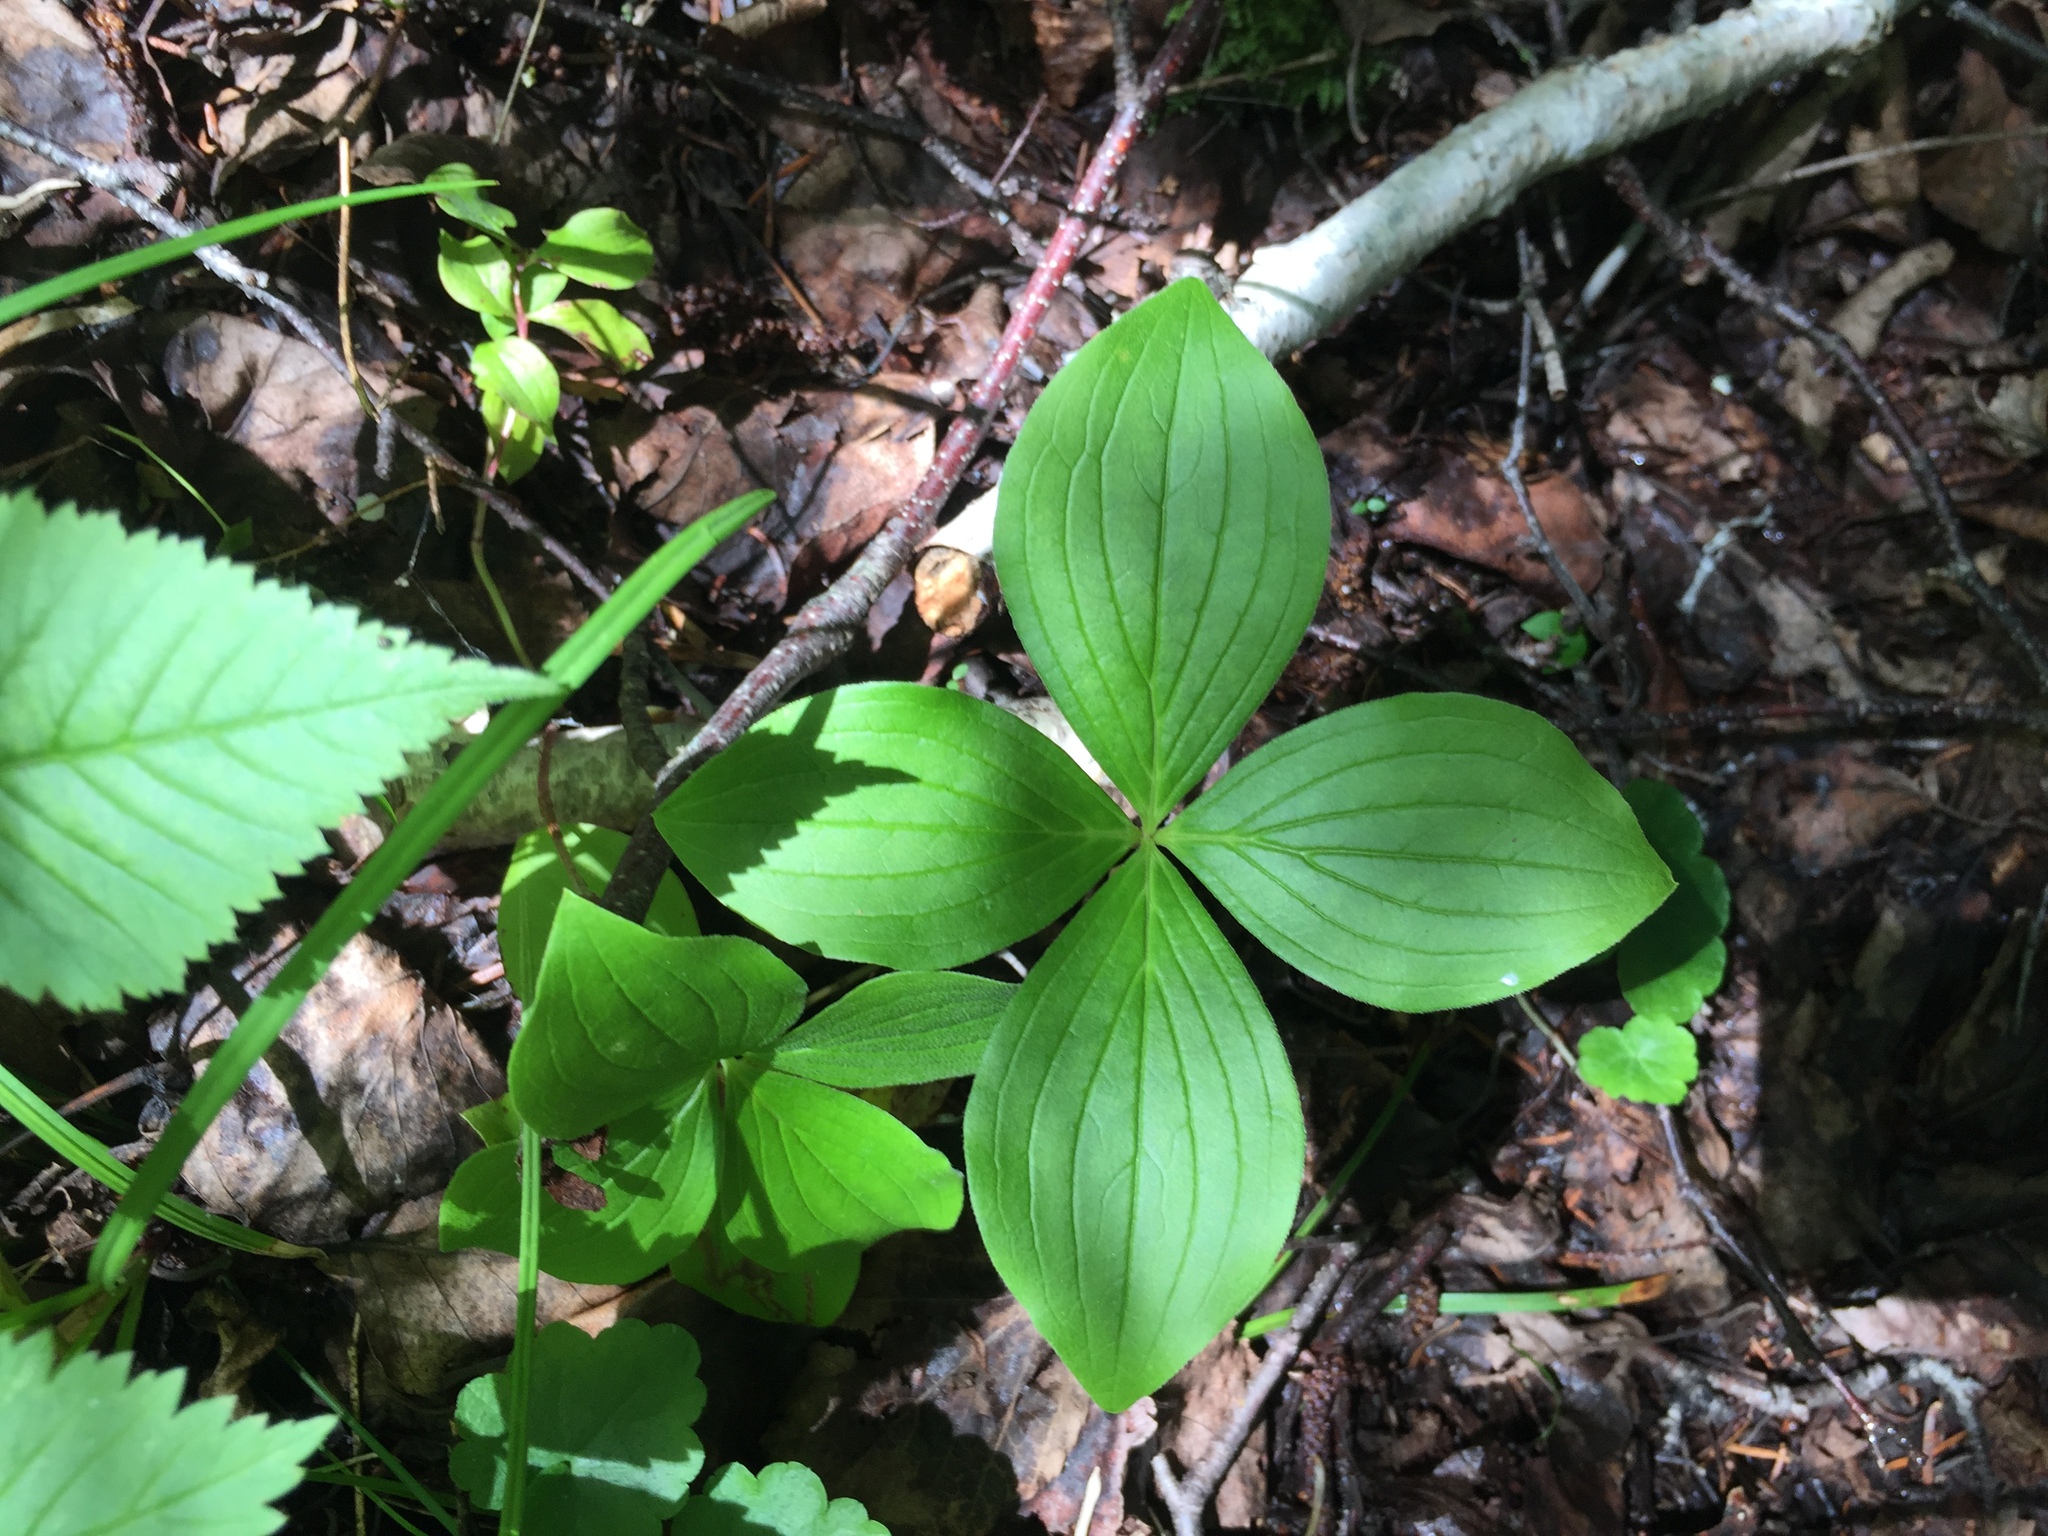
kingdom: Plantae
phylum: Tracheophyta
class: Magnoliopsida
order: Cornales
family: Cornaceae
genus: Cornus
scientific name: Cornus canadensis
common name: Creeping dogwood
